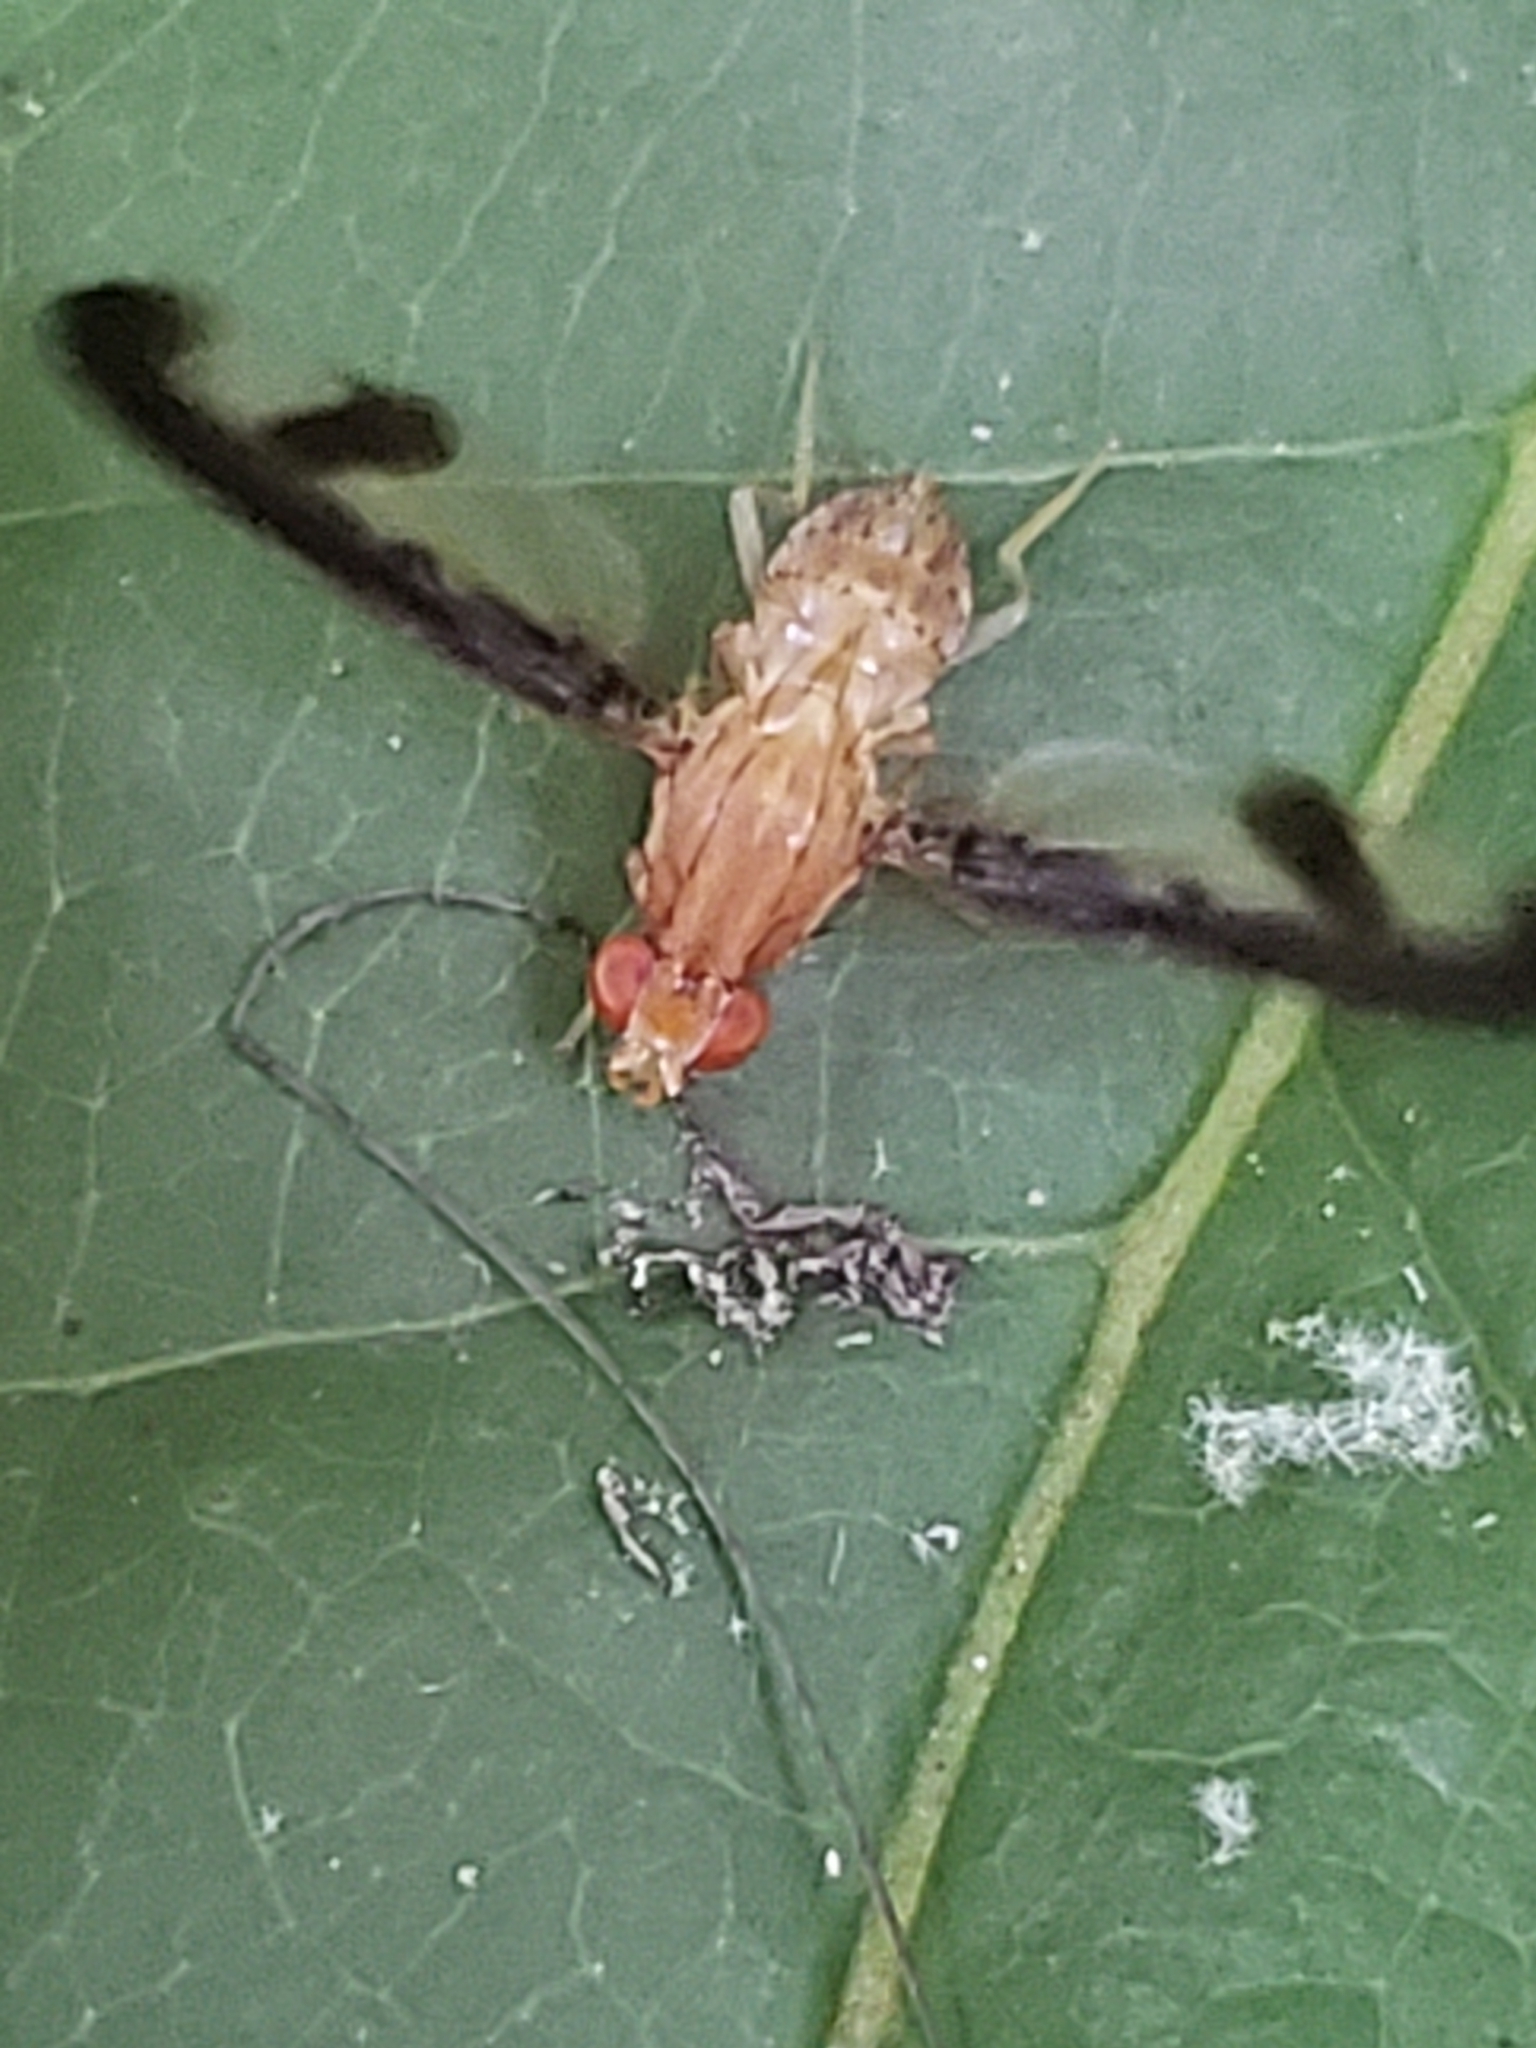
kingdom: Animalia
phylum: Arthropoda
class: Insecta
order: Diptera
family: Pallopteridae
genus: Toxonevra
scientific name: Toxonevra superba
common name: Antlered flutter fly
